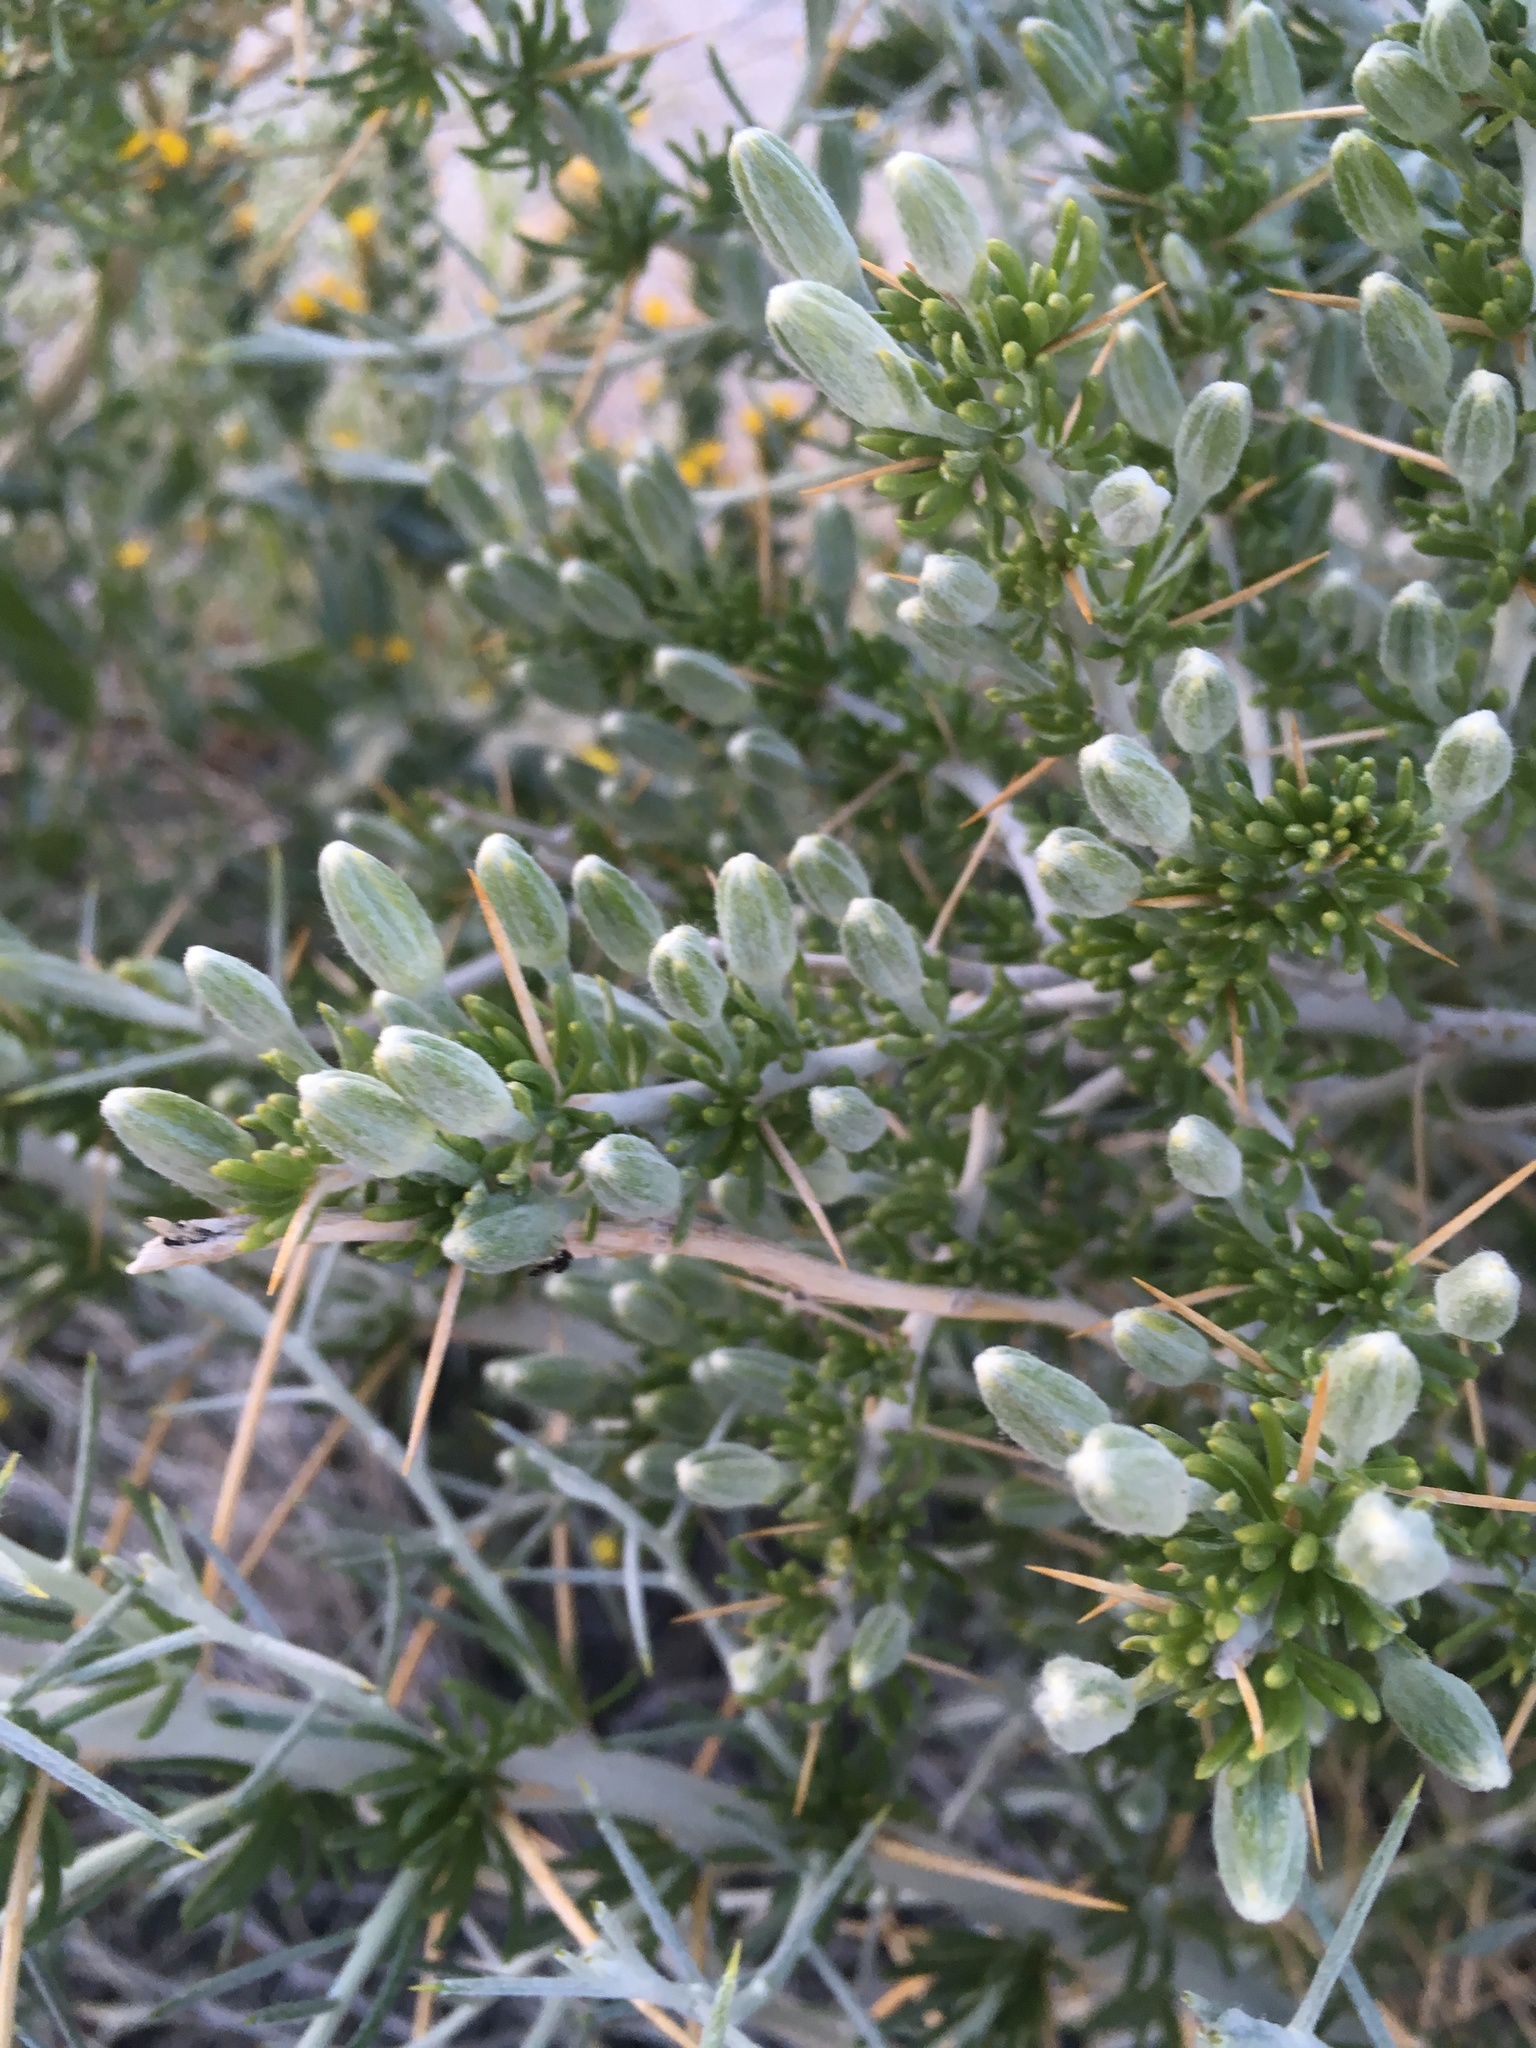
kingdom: Plantae
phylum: Tracheophyta
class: Magnoliopsida
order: Asterales
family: Asteraceae
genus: Tetradymia
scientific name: Tetradymia axillaris
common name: Long-spine horsebrush
